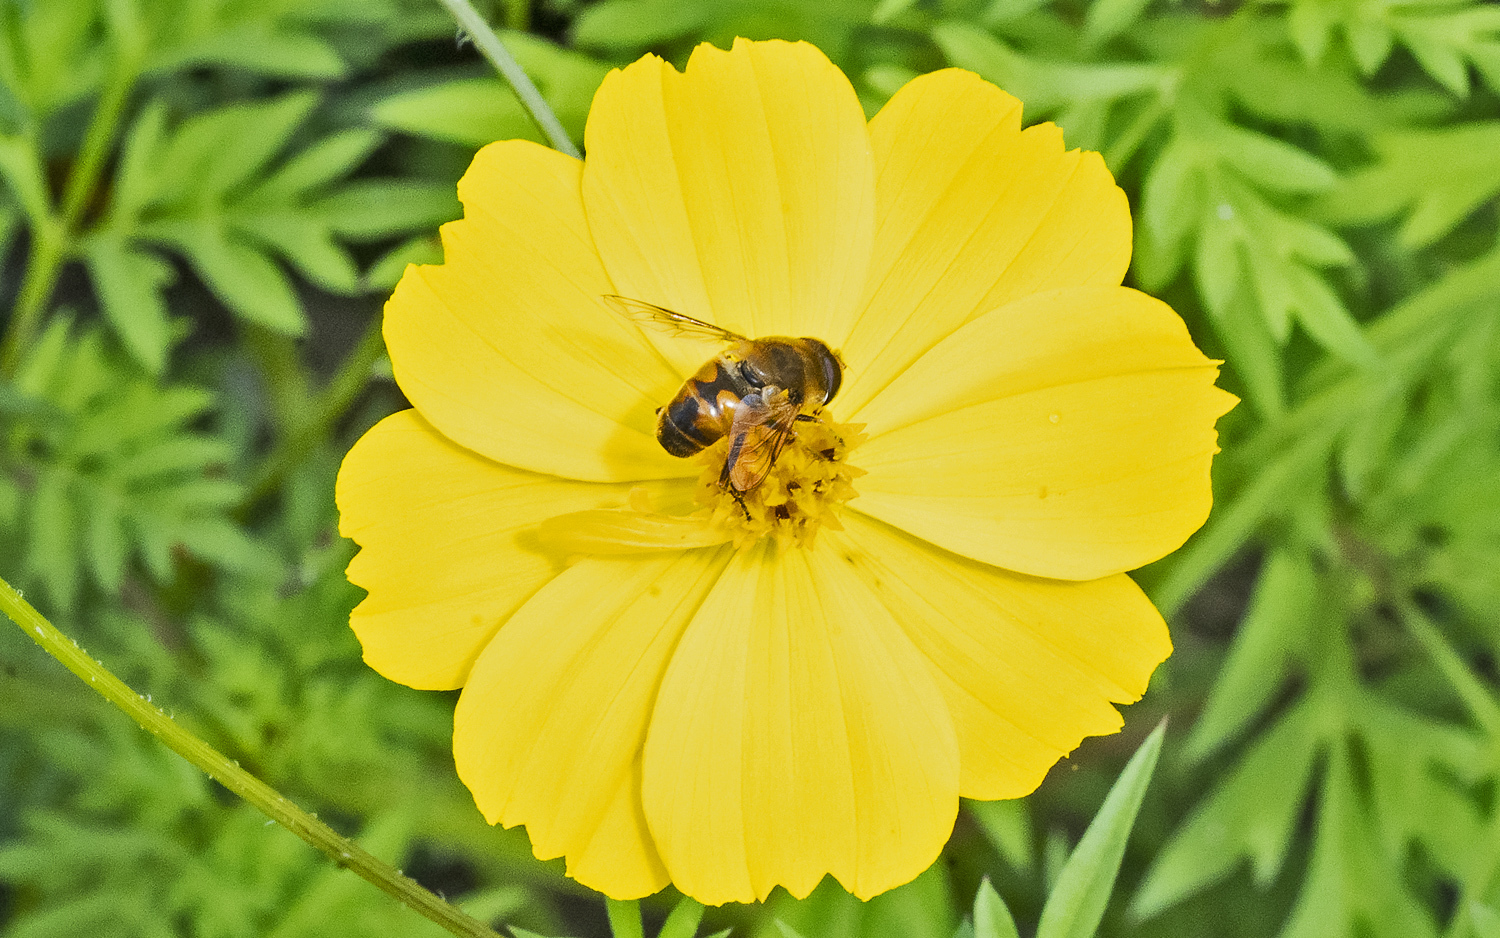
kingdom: Animalia
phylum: Arthropoda
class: Insecta
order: Diptera
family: Syrphidae
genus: Eristalis
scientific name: Eristalis tenax
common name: Drone fly
